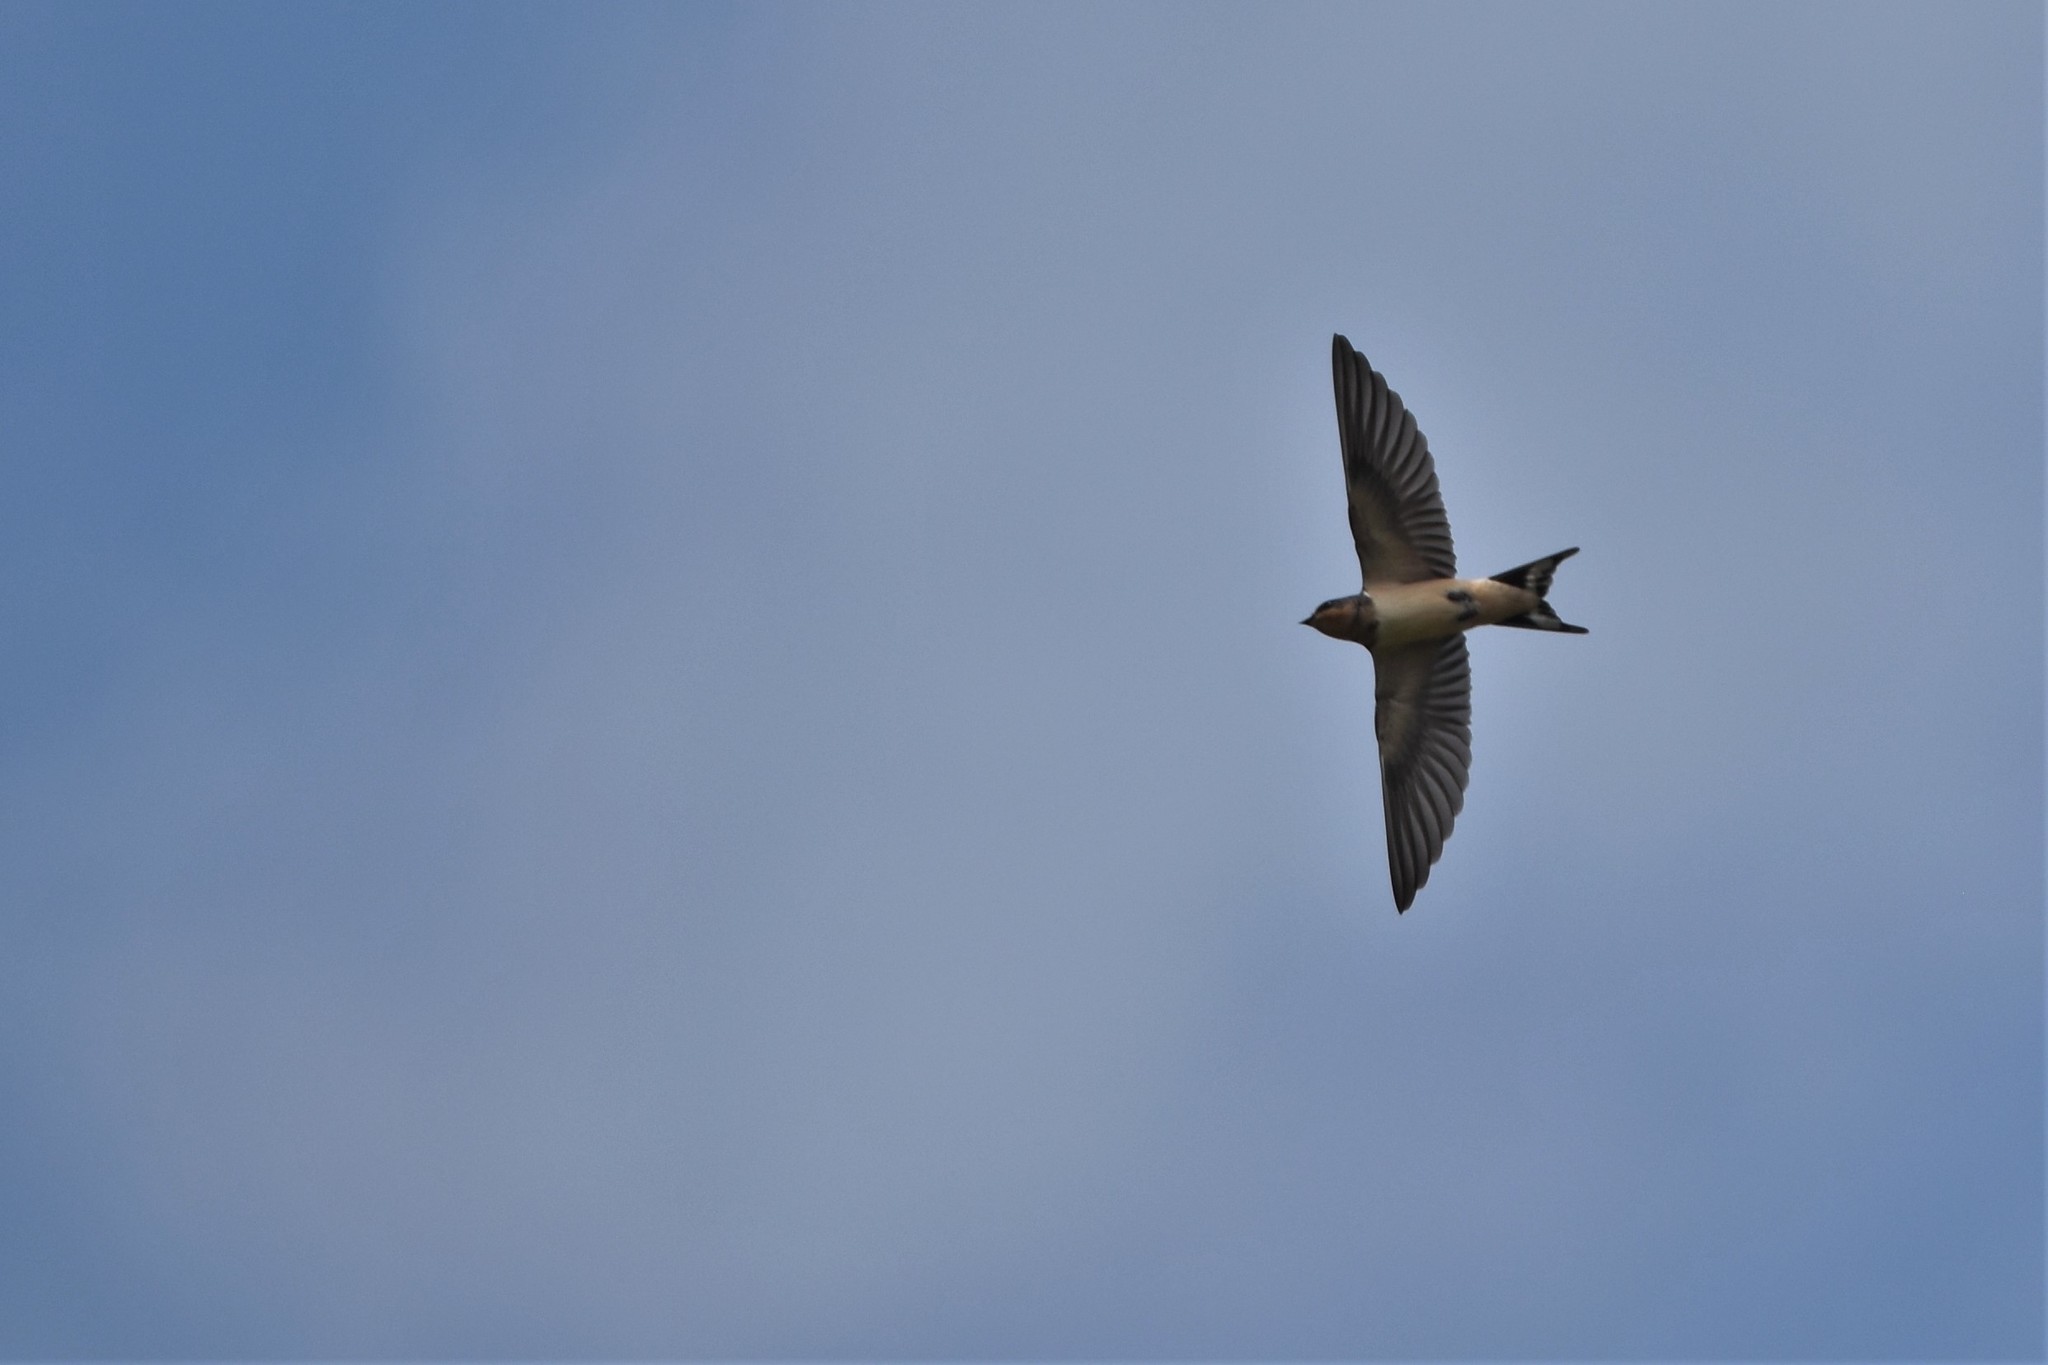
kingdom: Animalia
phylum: Chordata
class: Aves
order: Passeriformes
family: Hirundinidae
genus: Hirundo
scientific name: Hirundo rustica
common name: Barn swallow
